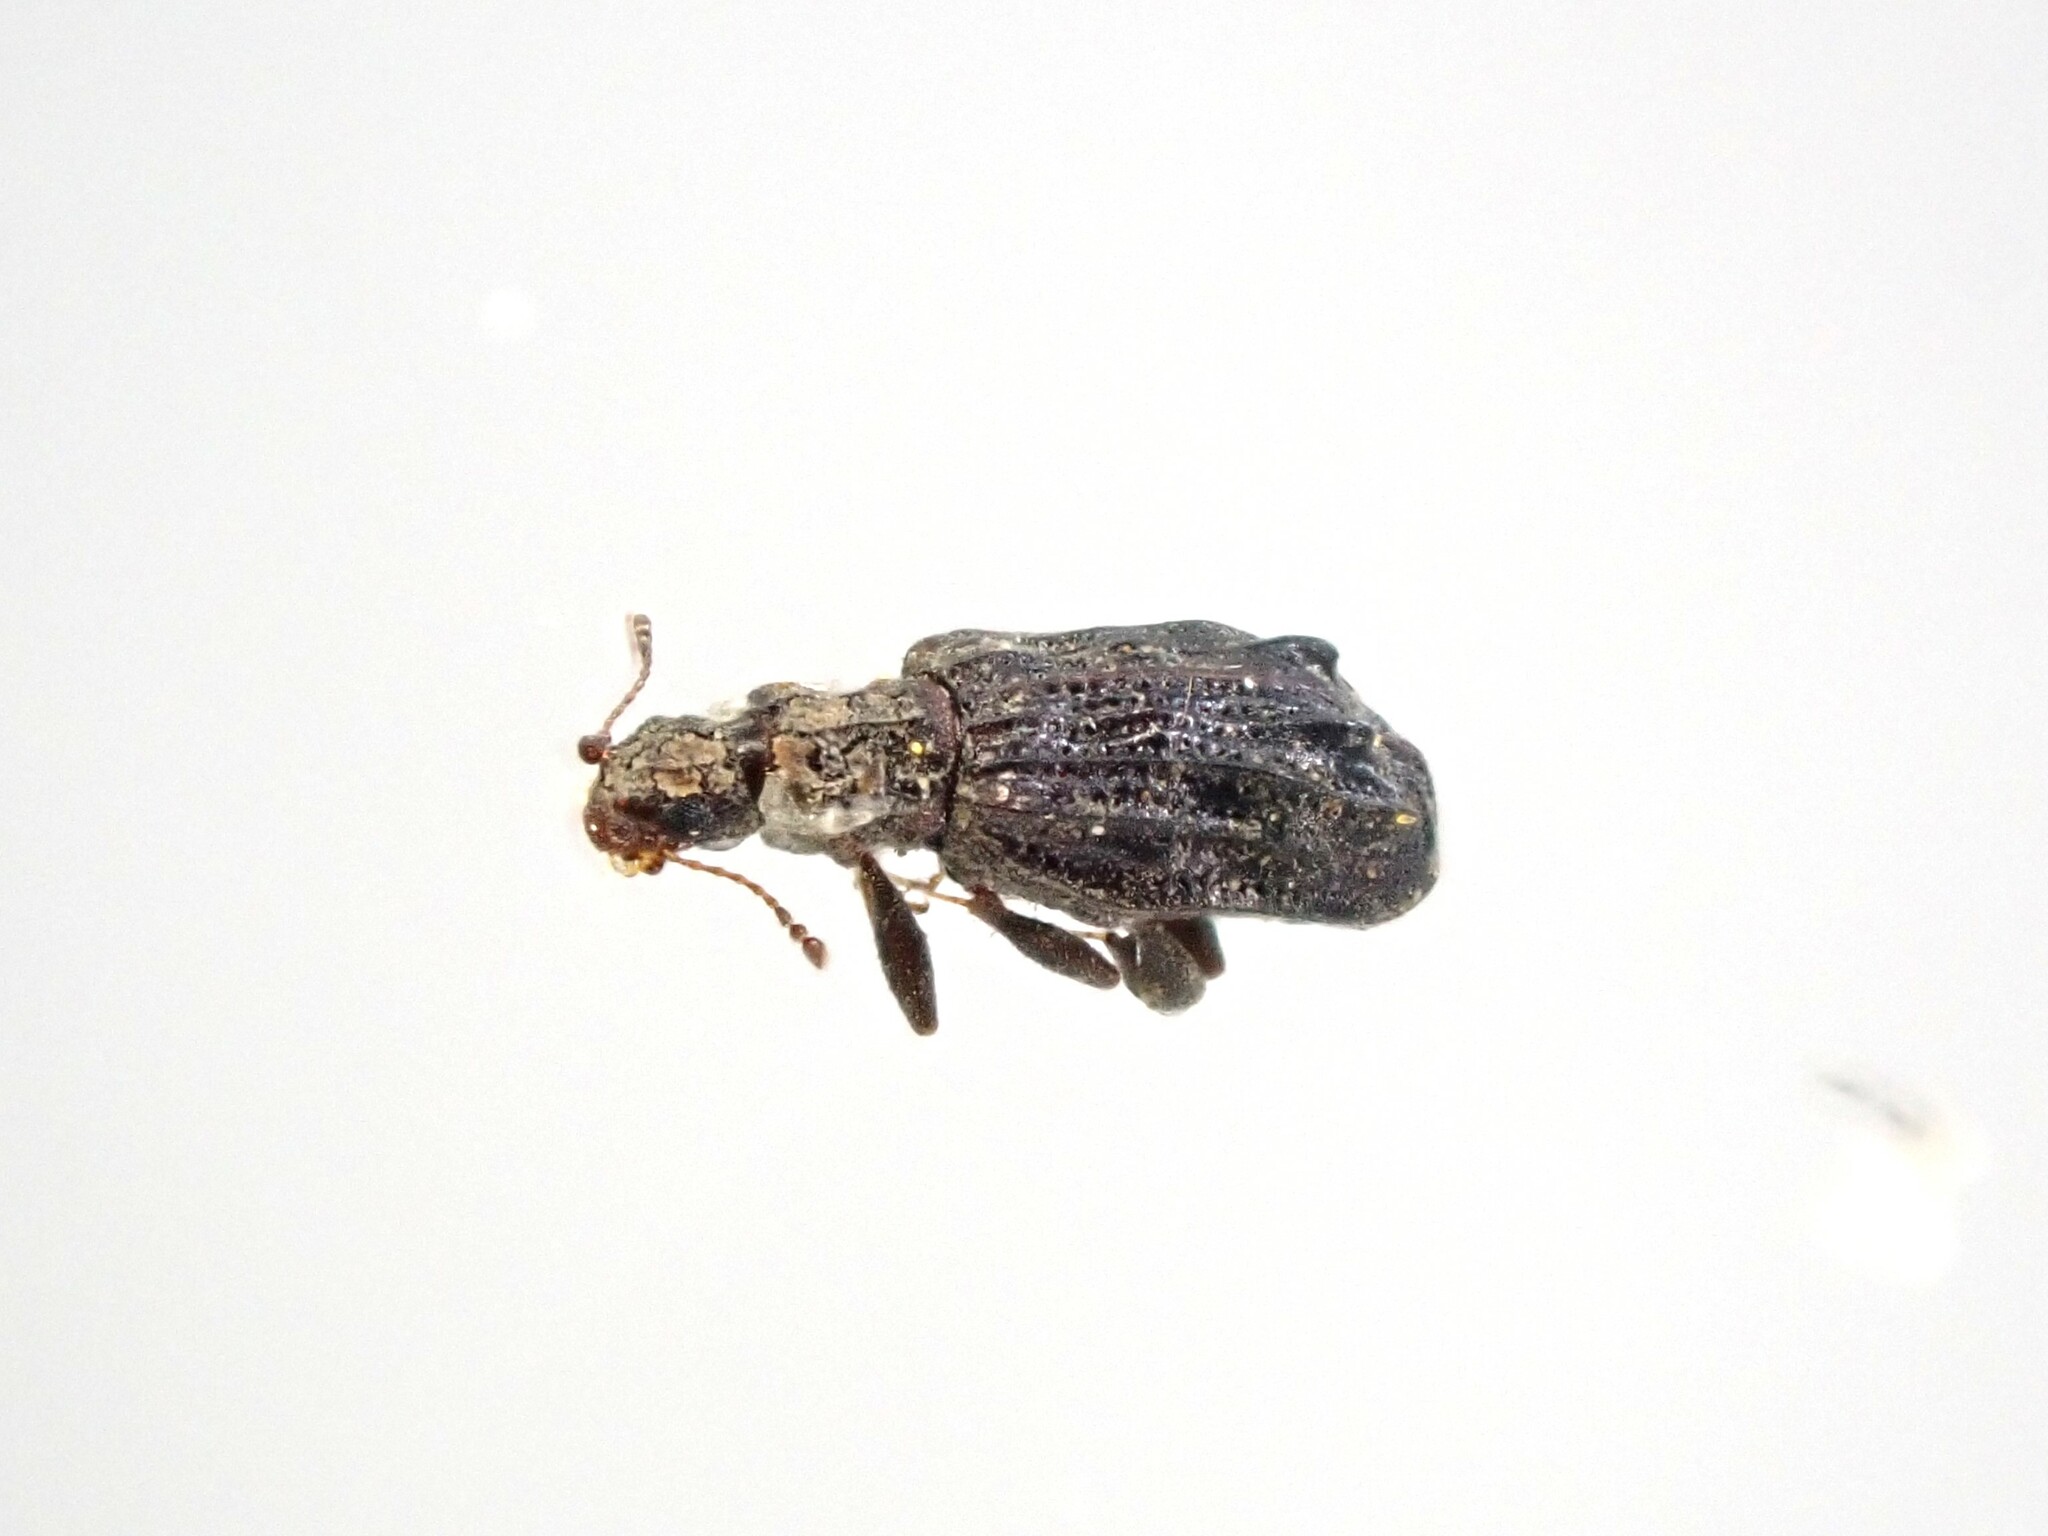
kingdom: Animalia
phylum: Arthropoda
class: Insecta
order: Coleoptera
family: Latridiidae
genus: Cartodere
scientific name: Cartodere nodifer
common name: Humpbacked minute scavenger beetle
